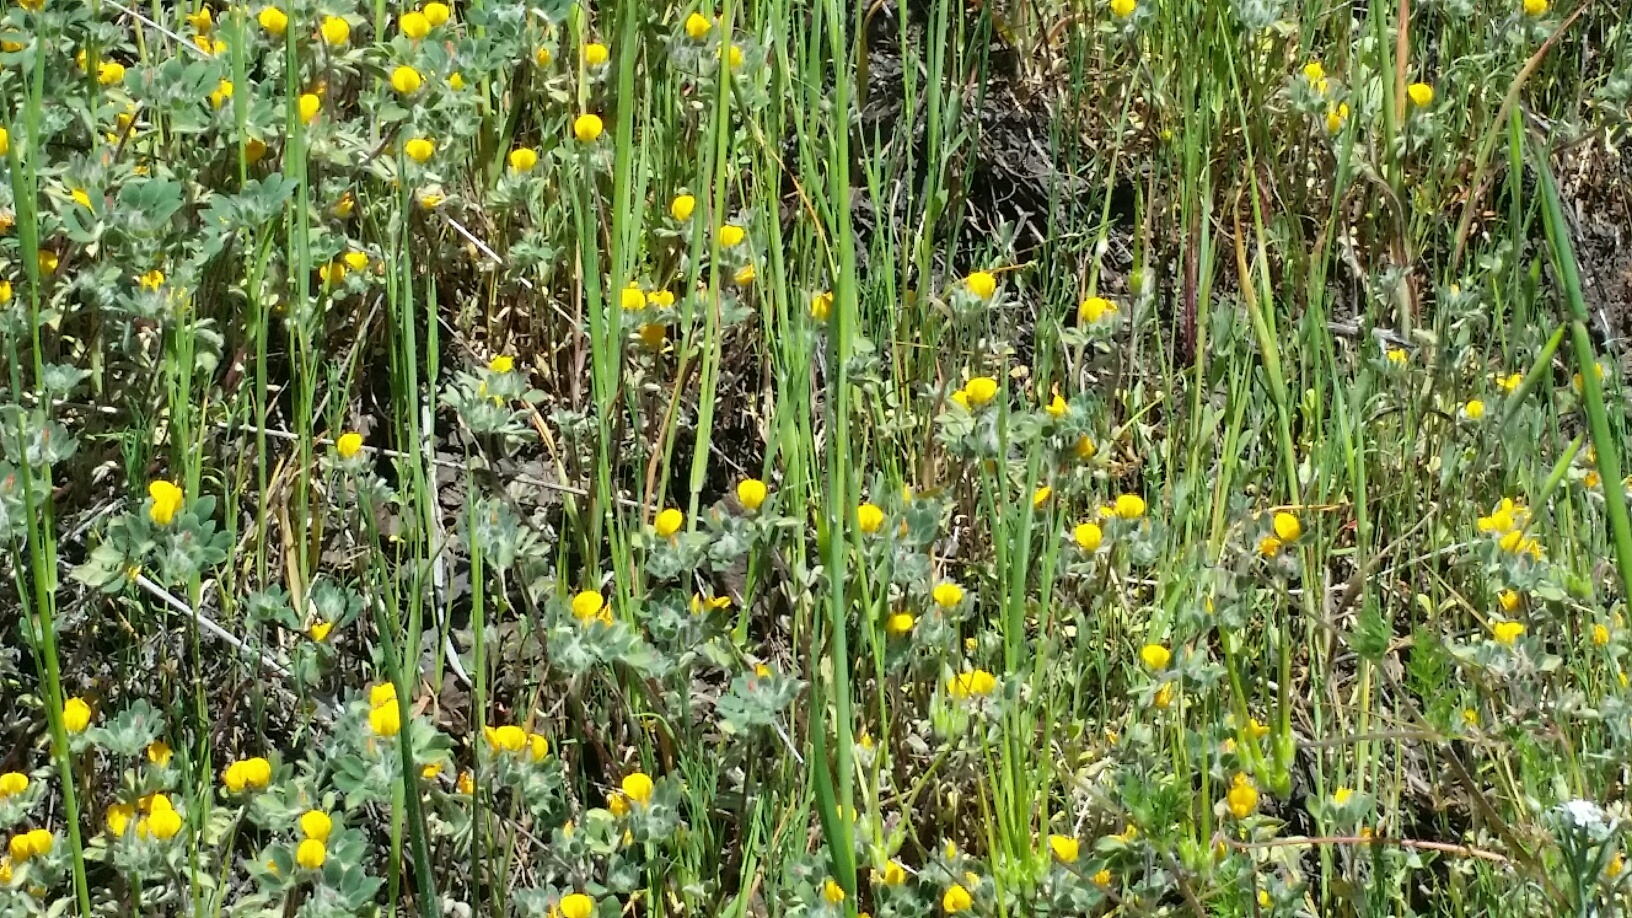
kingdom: Plantae
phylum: Tracheophyta
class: Magnoliopsida
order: Fabales
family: Fabaceae
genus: Acmispon
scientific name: Acmispon brachycarpus
